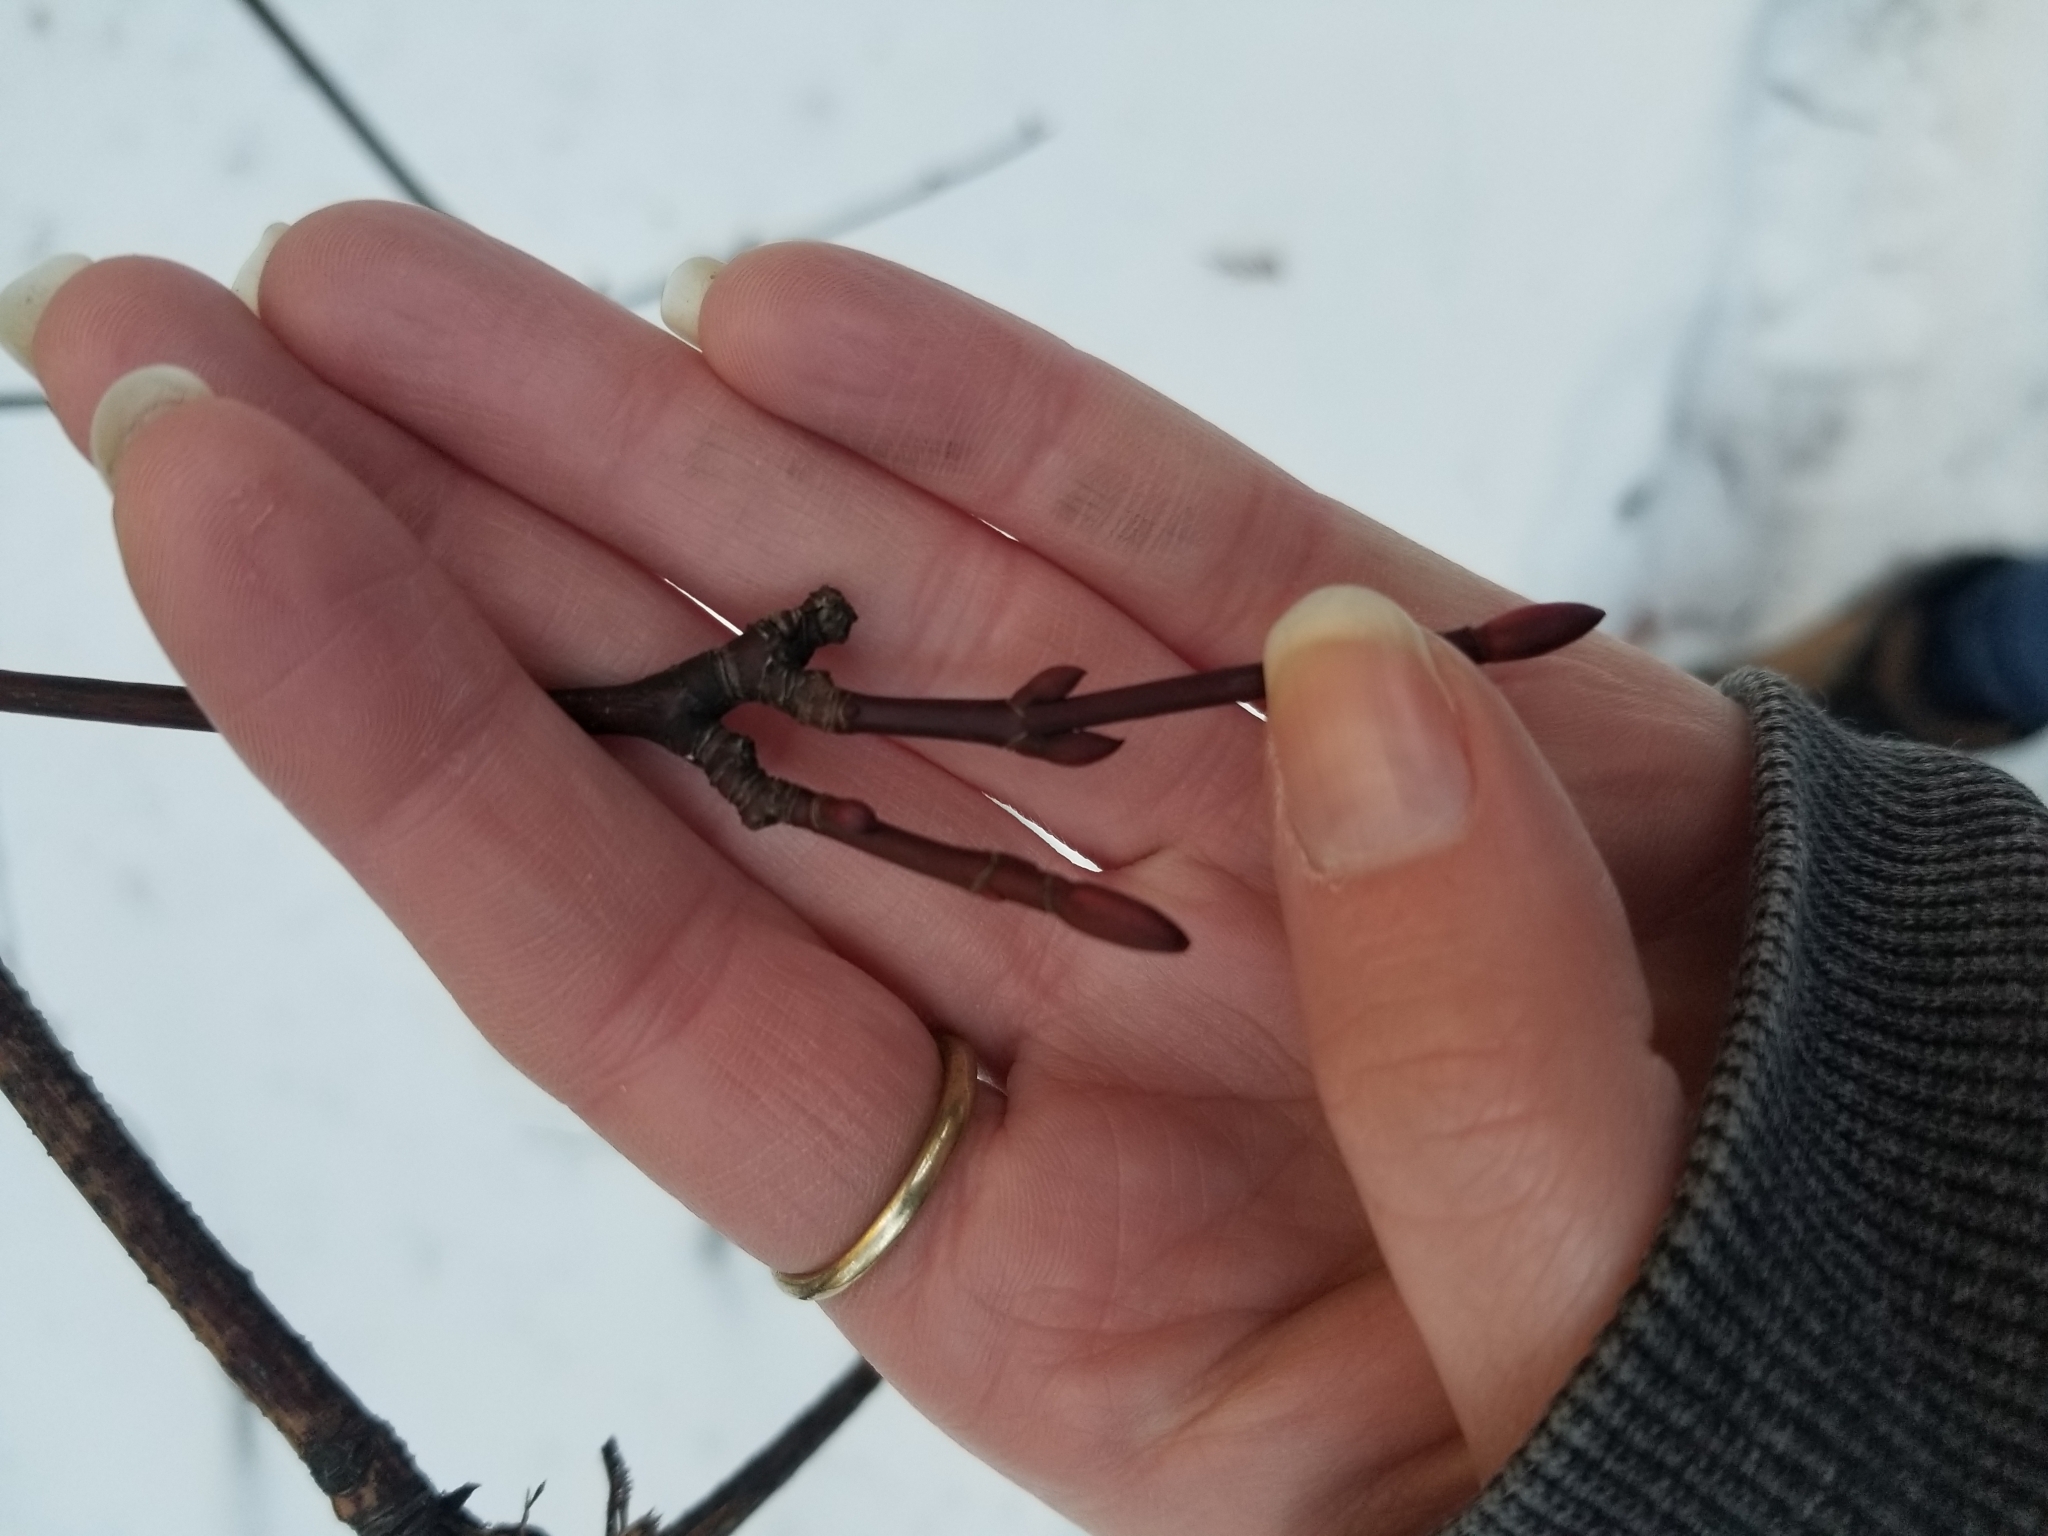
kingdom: Plantae
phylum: Tracheophyta
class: Magnoliopsida
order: Sapindales
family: Sapindaceae
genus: Acer
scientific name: Acer glabrum
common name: Rocky mountain maple
